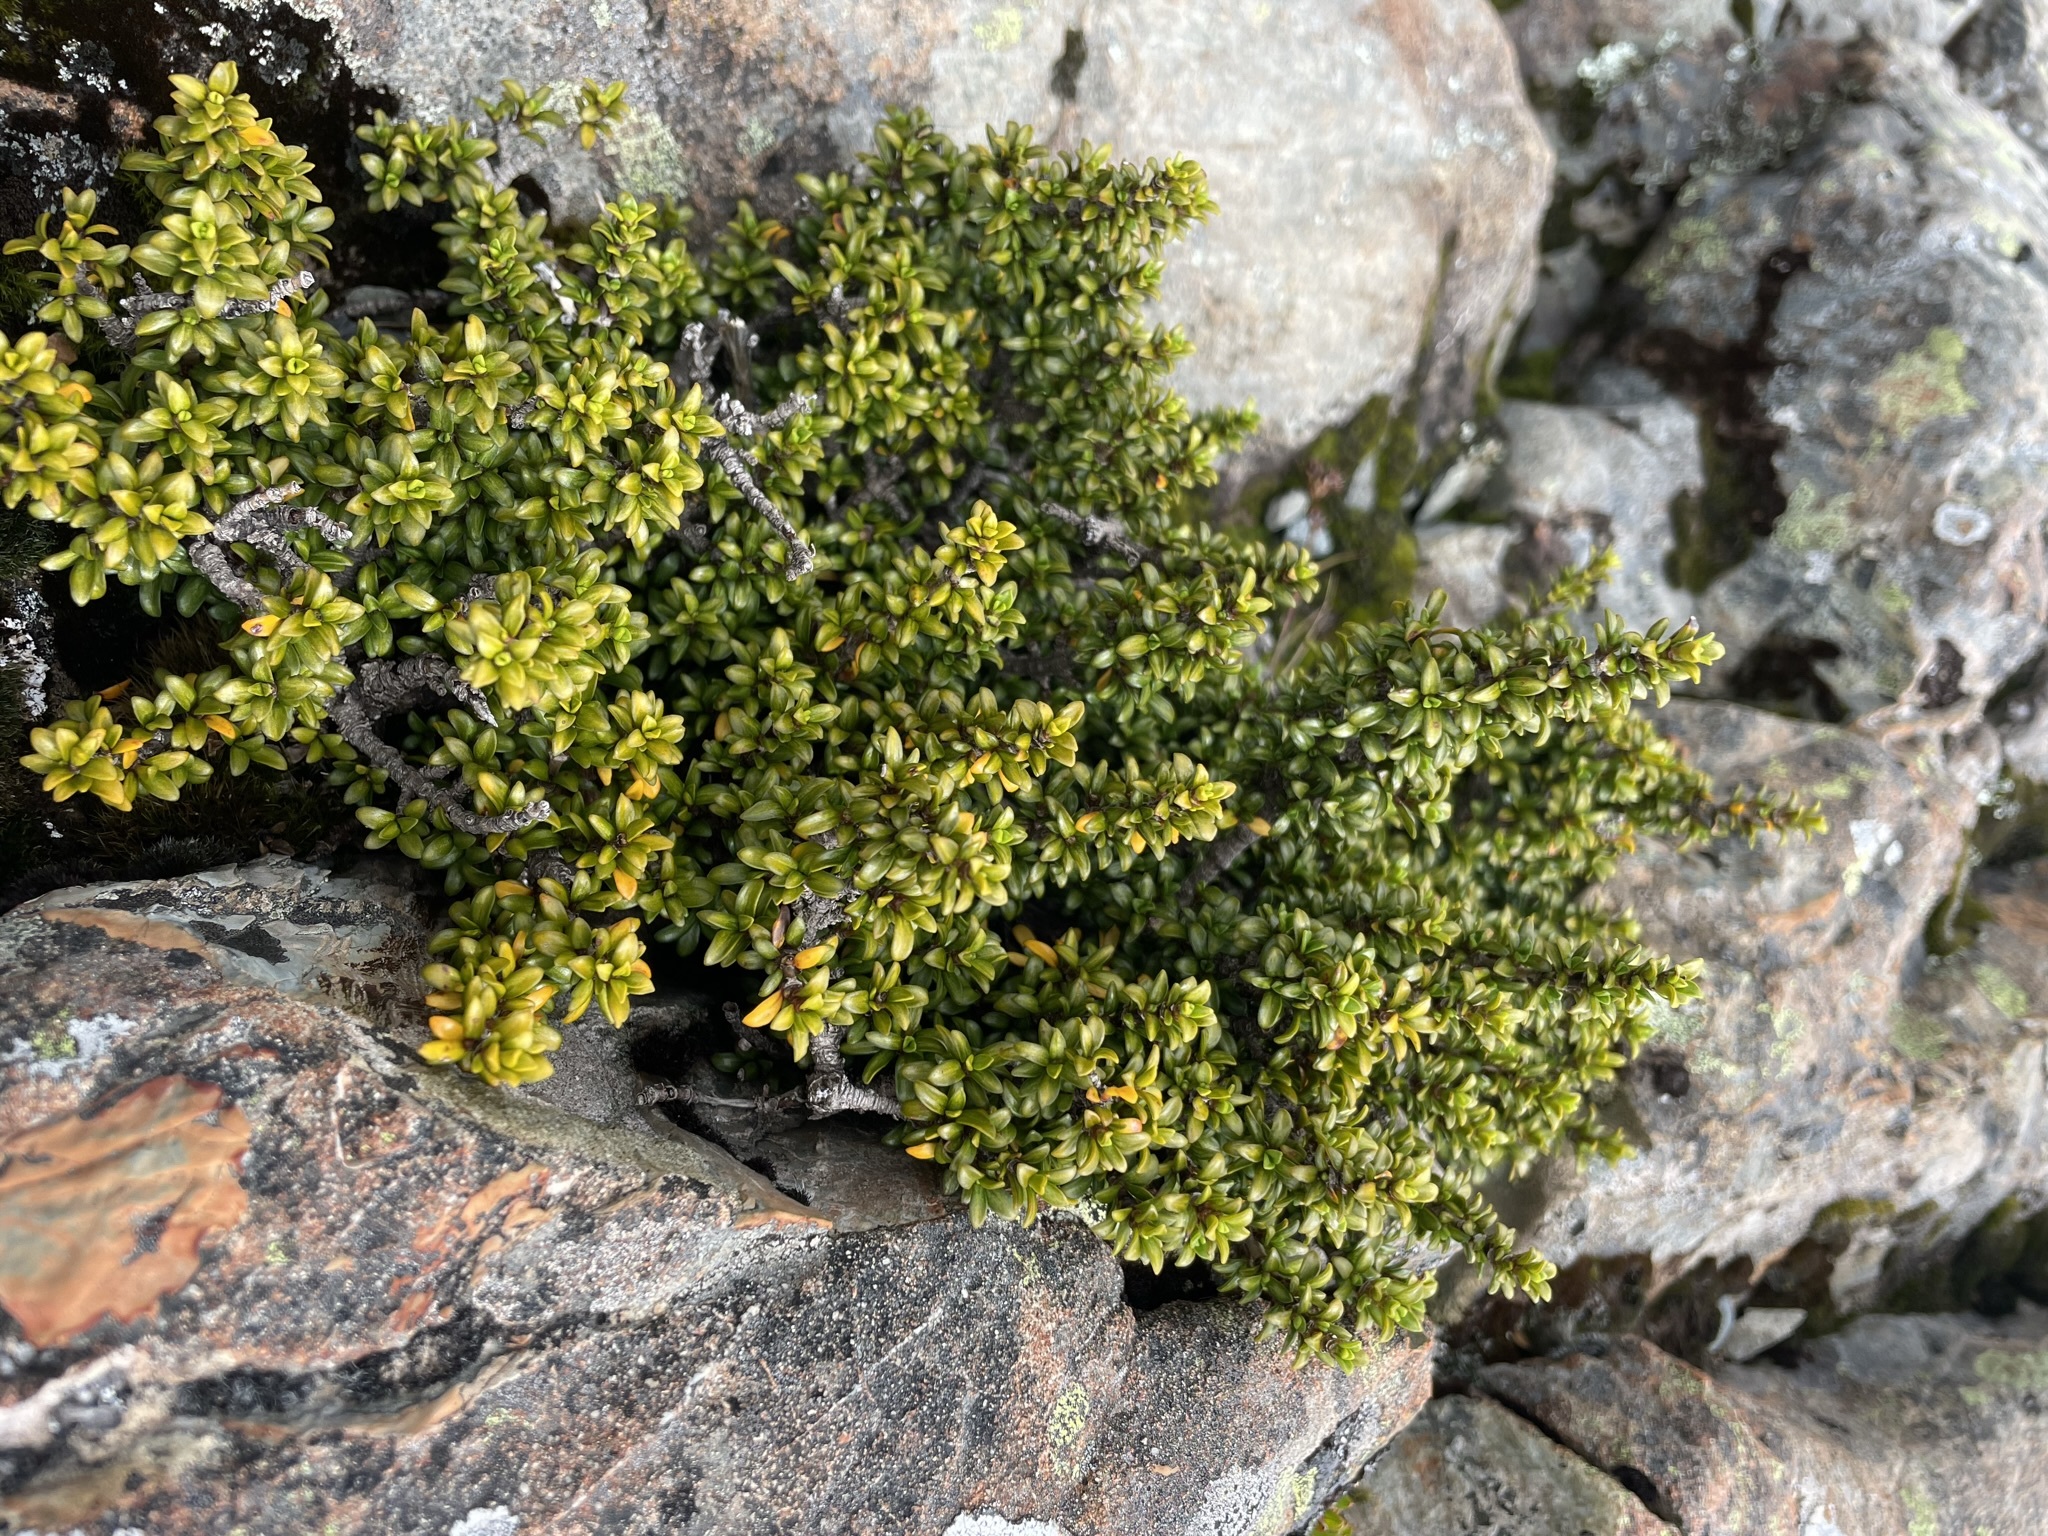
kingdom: Plantae
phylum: Tracheophyta
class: Magnoliopsida
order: Gentianales
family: Rubiaceae
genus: Coprosma
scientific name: Coprosma fowerakeri
